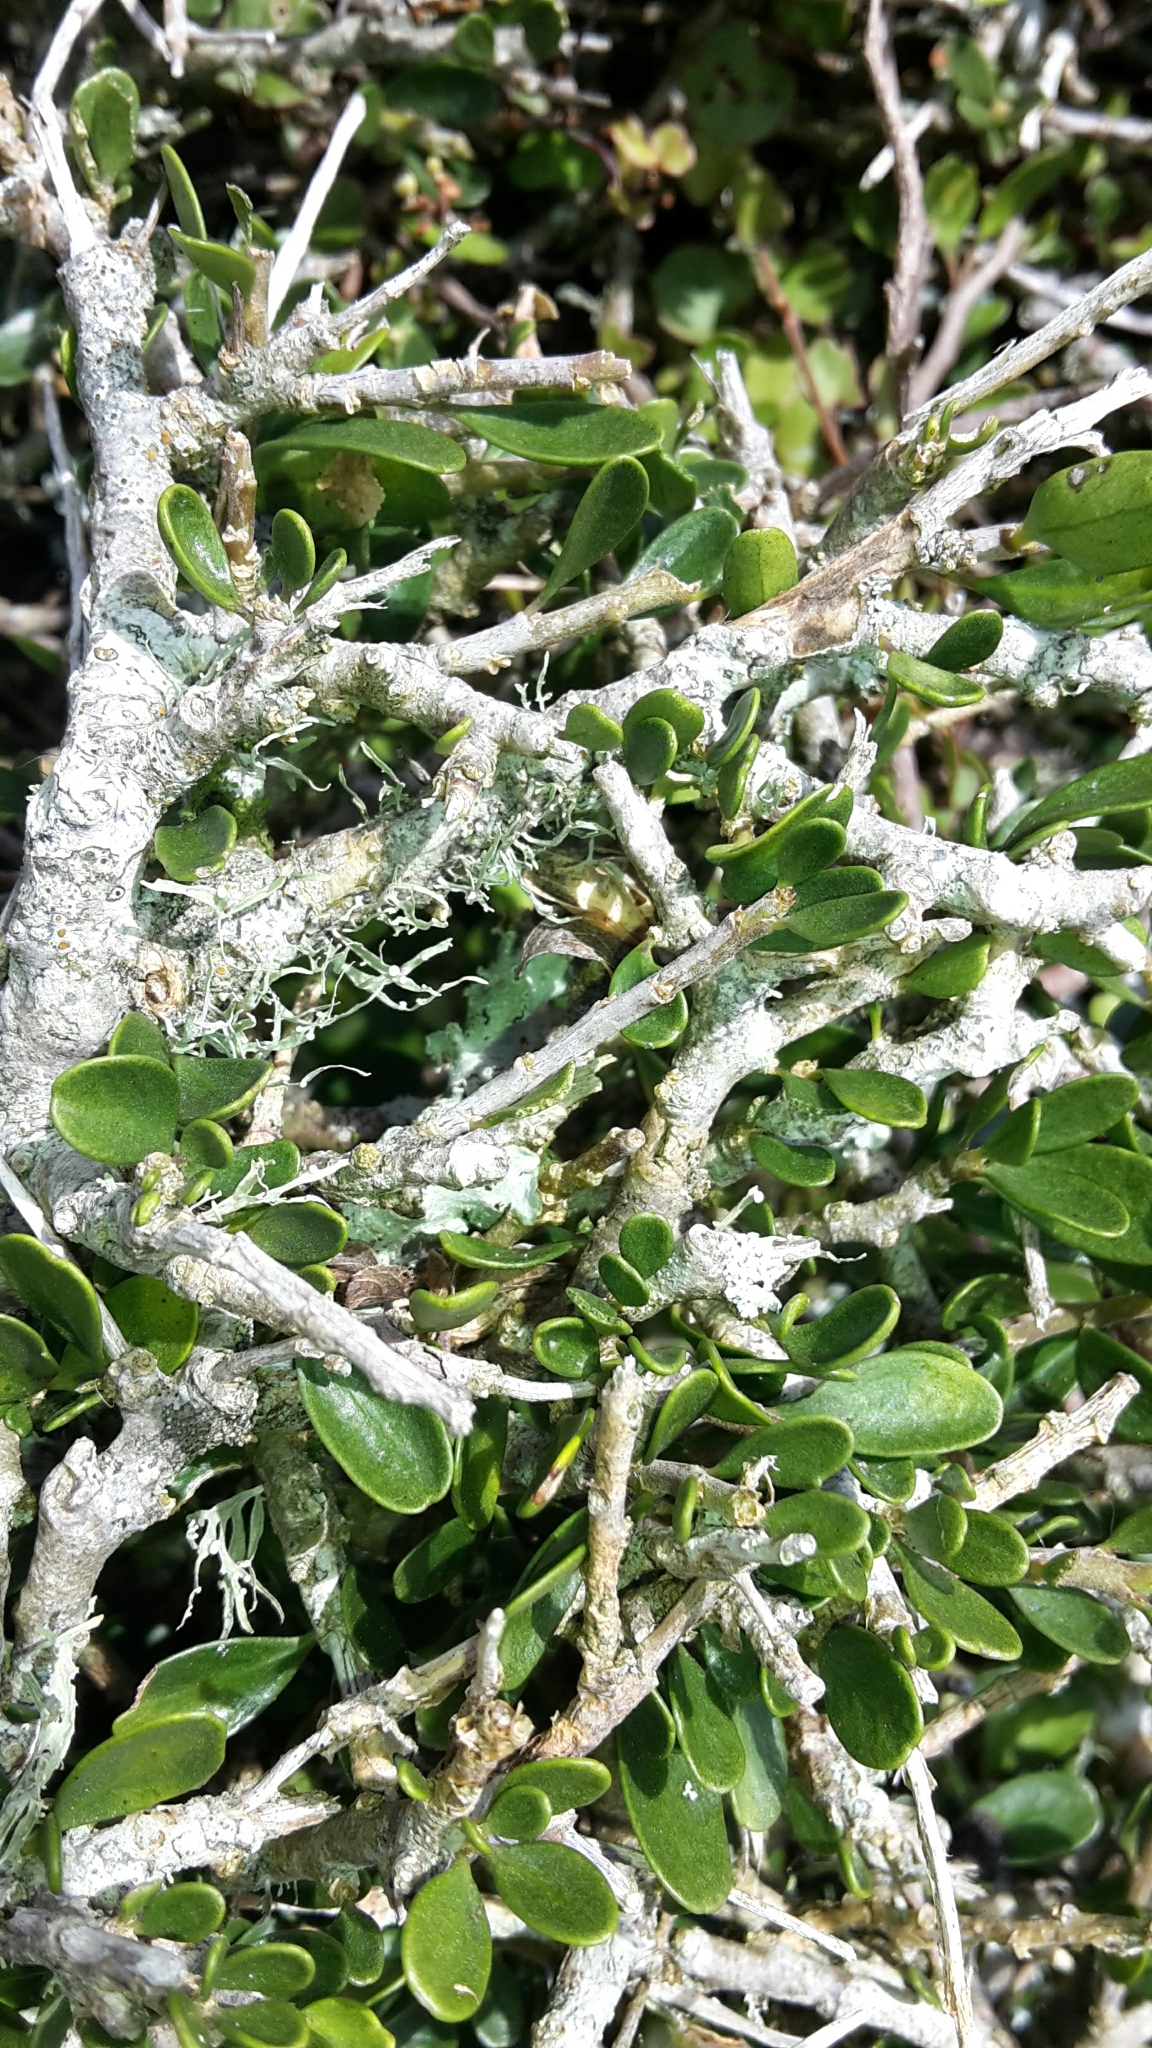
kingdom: Plantae
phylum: Tracheophyta
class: Magnoliopsida
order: Malpighiales
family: Violaceae
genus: Melicytus
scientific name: Melicytus crassifolius
